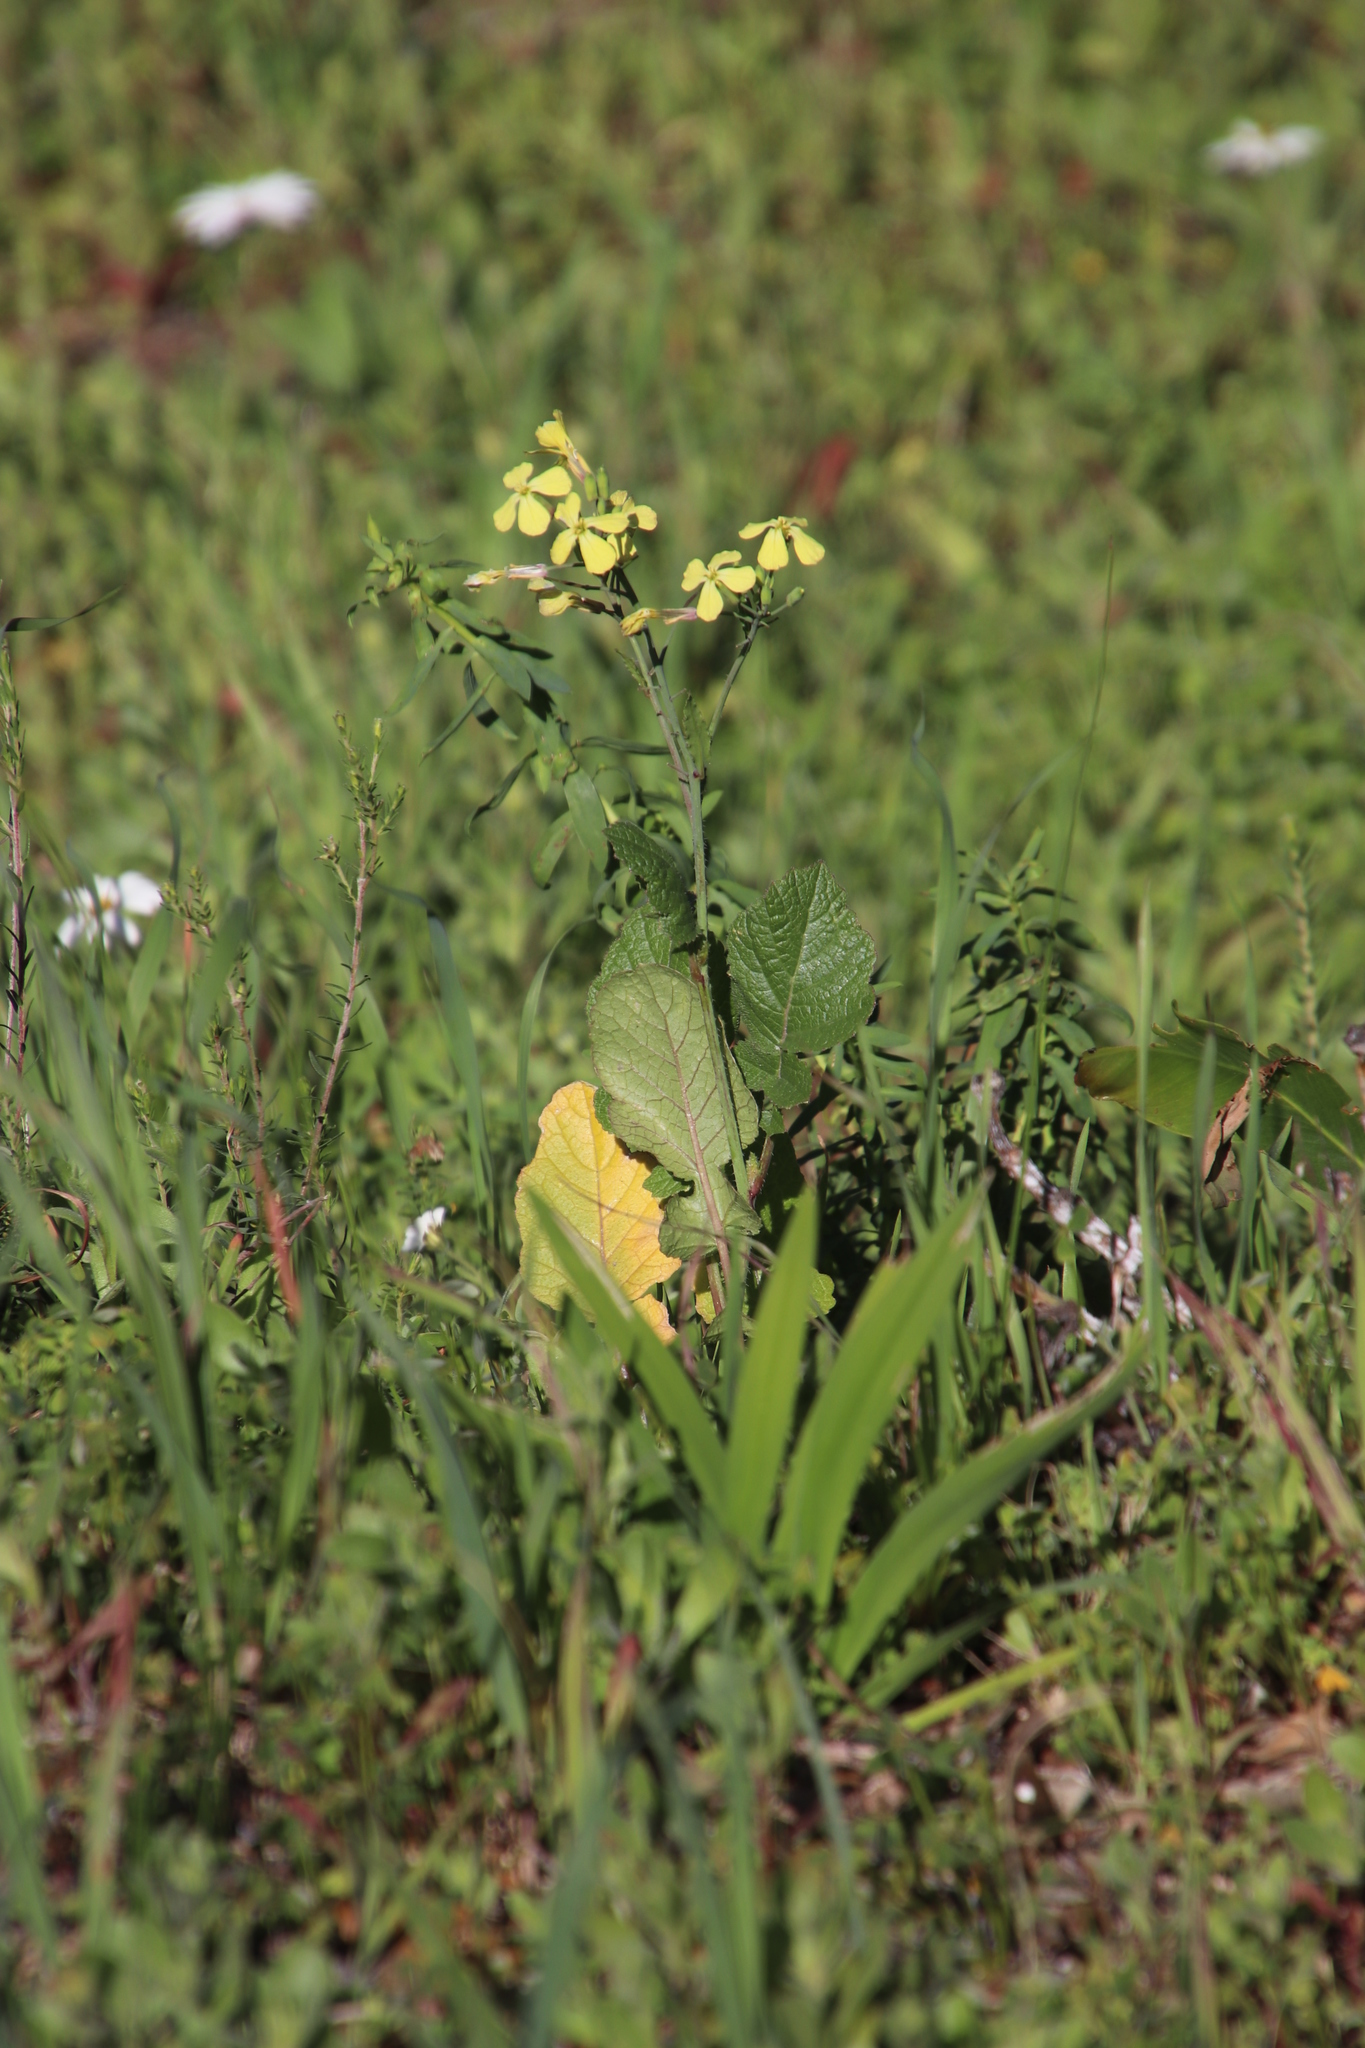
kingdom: Plantae
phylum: Tracheophyta
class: Magnoliopsida
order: Brassicales
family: Brassicaceae
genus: Raphanus
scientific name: Raphanus raphanistrum
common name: Wild radish
